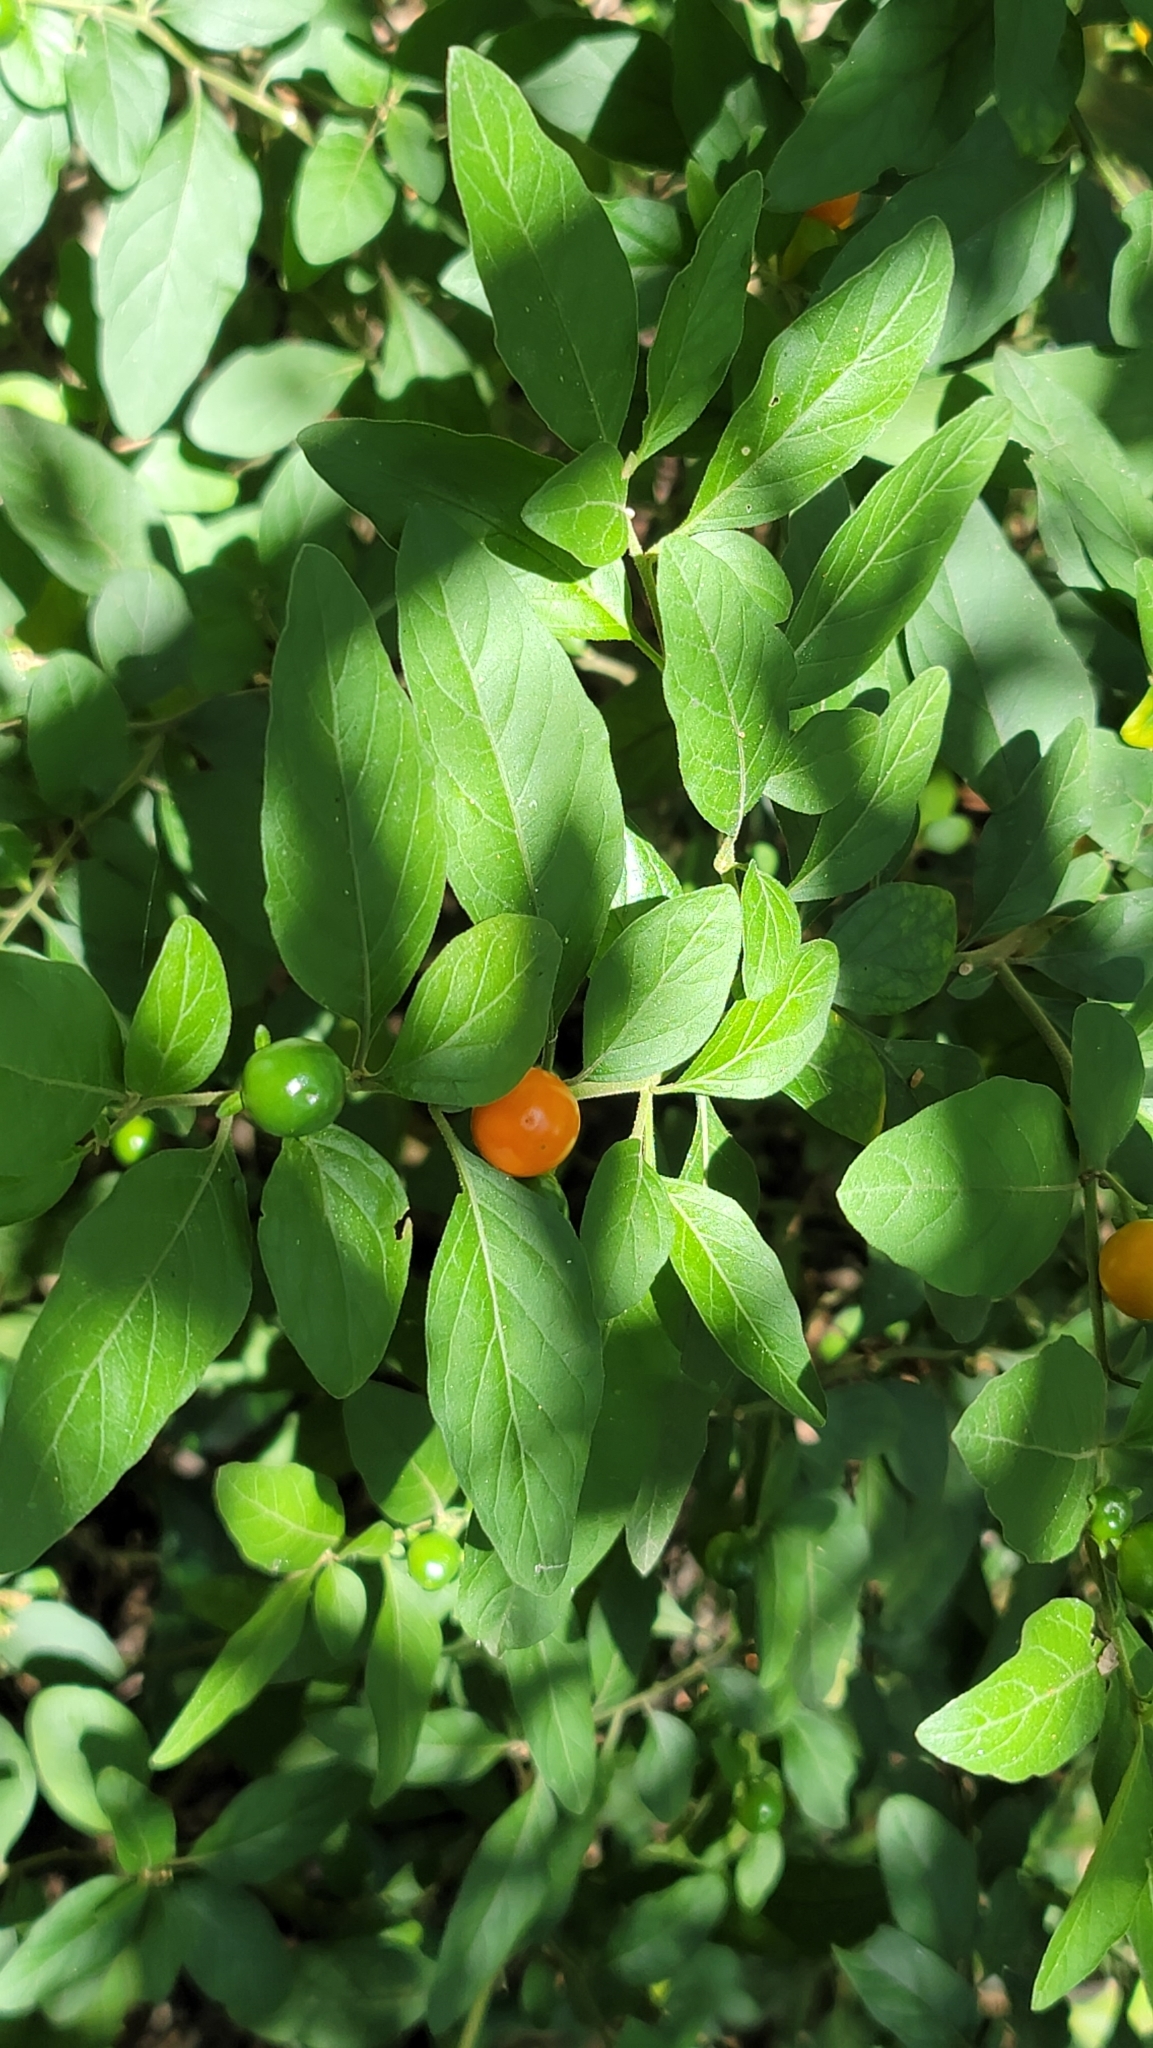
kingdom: Plantae
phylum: Tracheophyta
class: Magnoliopsida
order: Solanales
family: Solanaceae
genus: Solanum
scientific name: Solanum pseudocapsicum
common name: Jerusalem cherry
